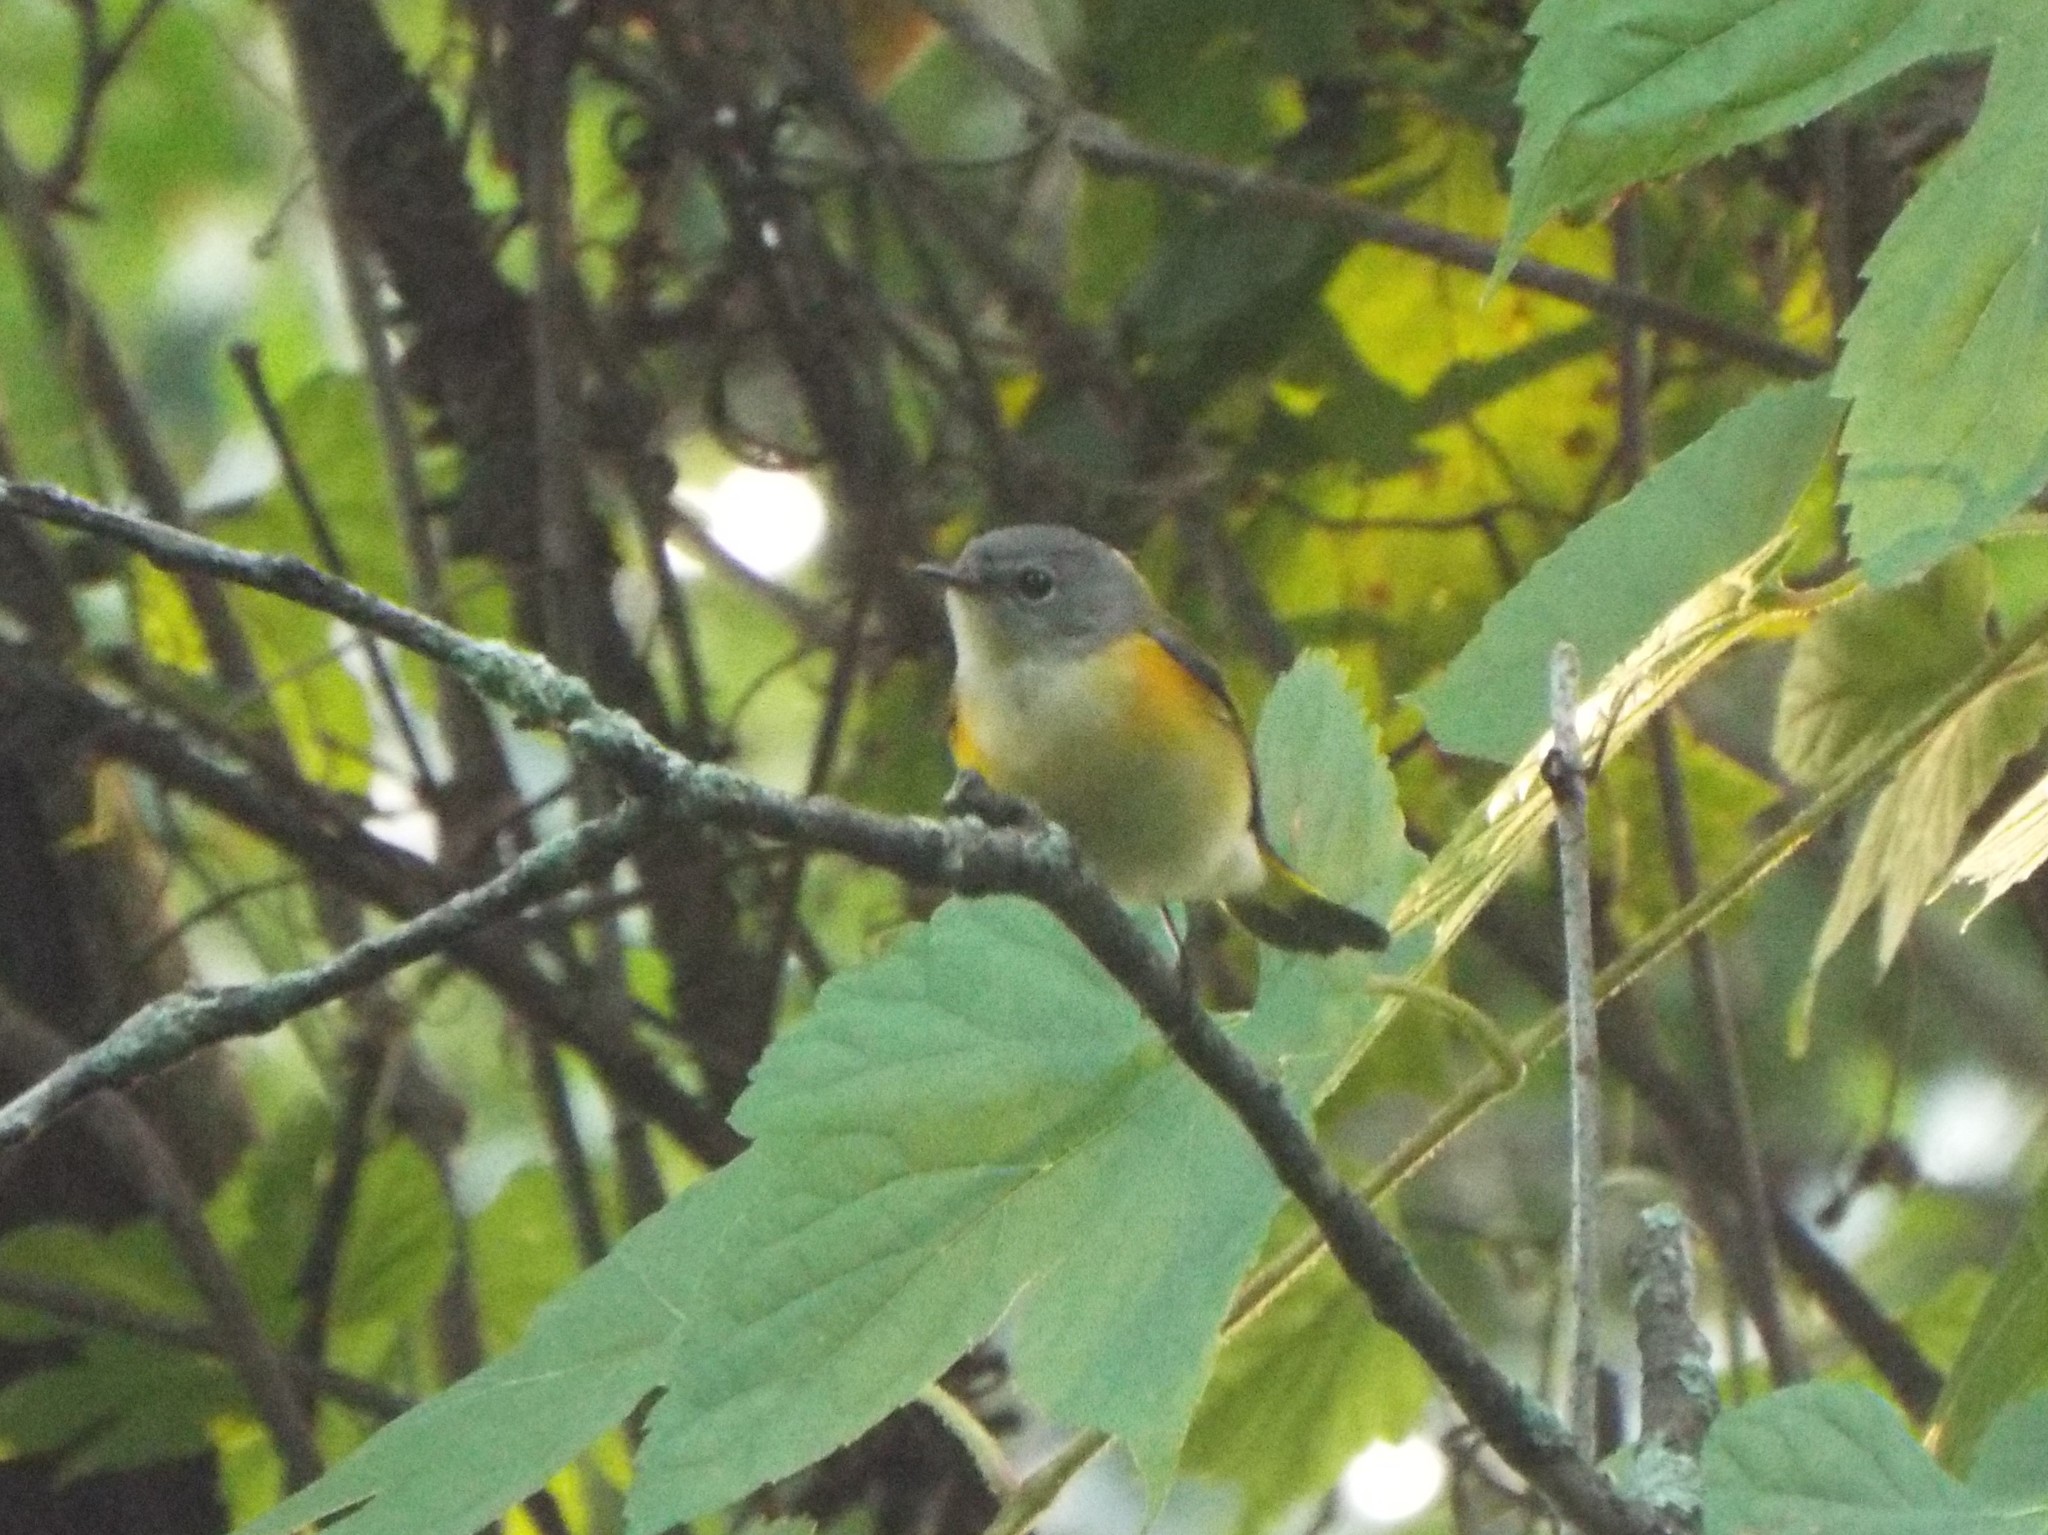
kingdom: Animalia
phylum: Chordata
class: Aves
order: Passeriformes
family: Parulidae
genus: Setophaga
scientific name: Setophaga ruticilla
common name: American redstart
